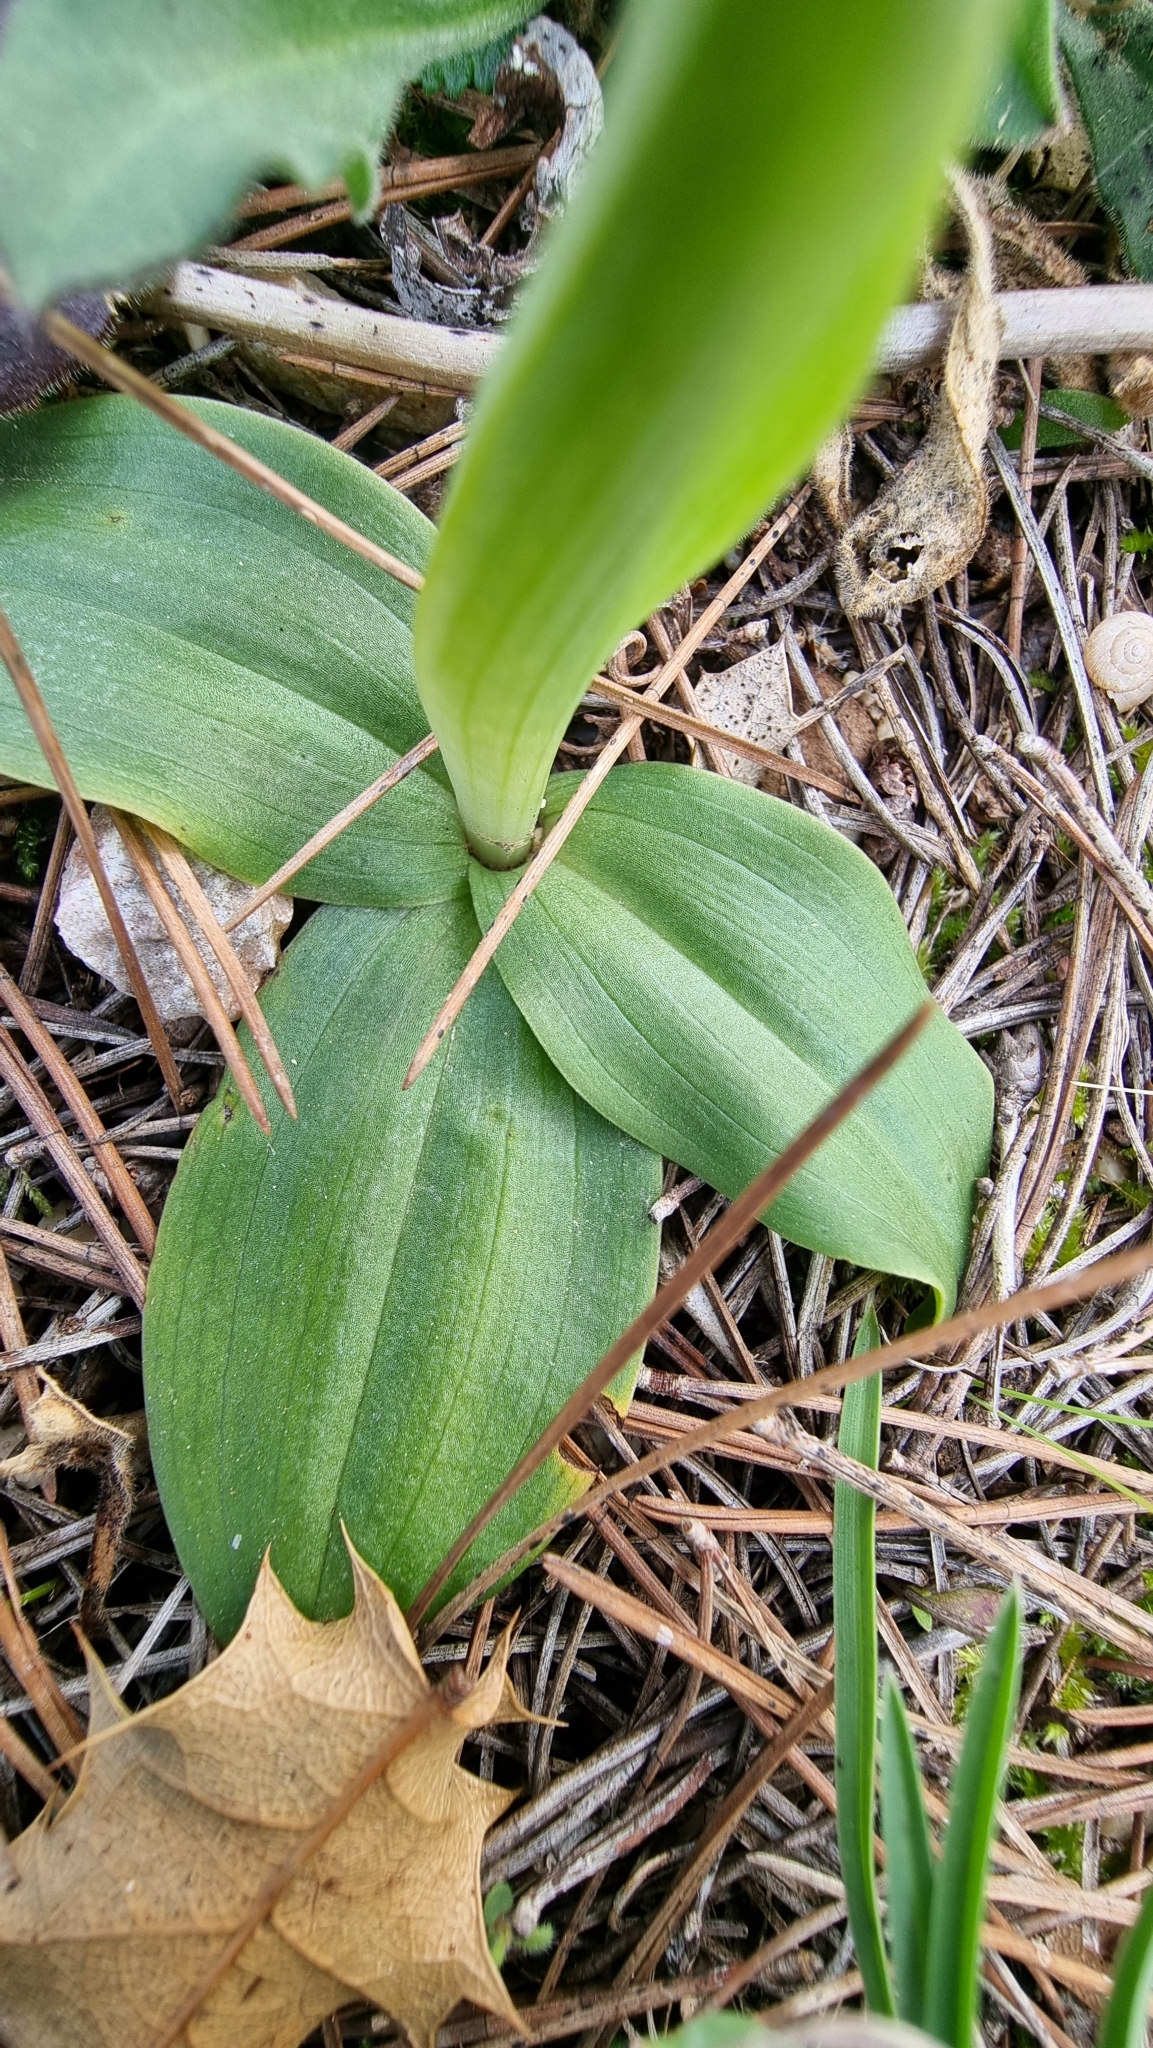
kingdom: Plantae
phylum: Tracheophyta
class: Liliopsida
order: Asparagales
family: Orchidaceae
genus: Ophrys
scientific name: Ophrys fusca
